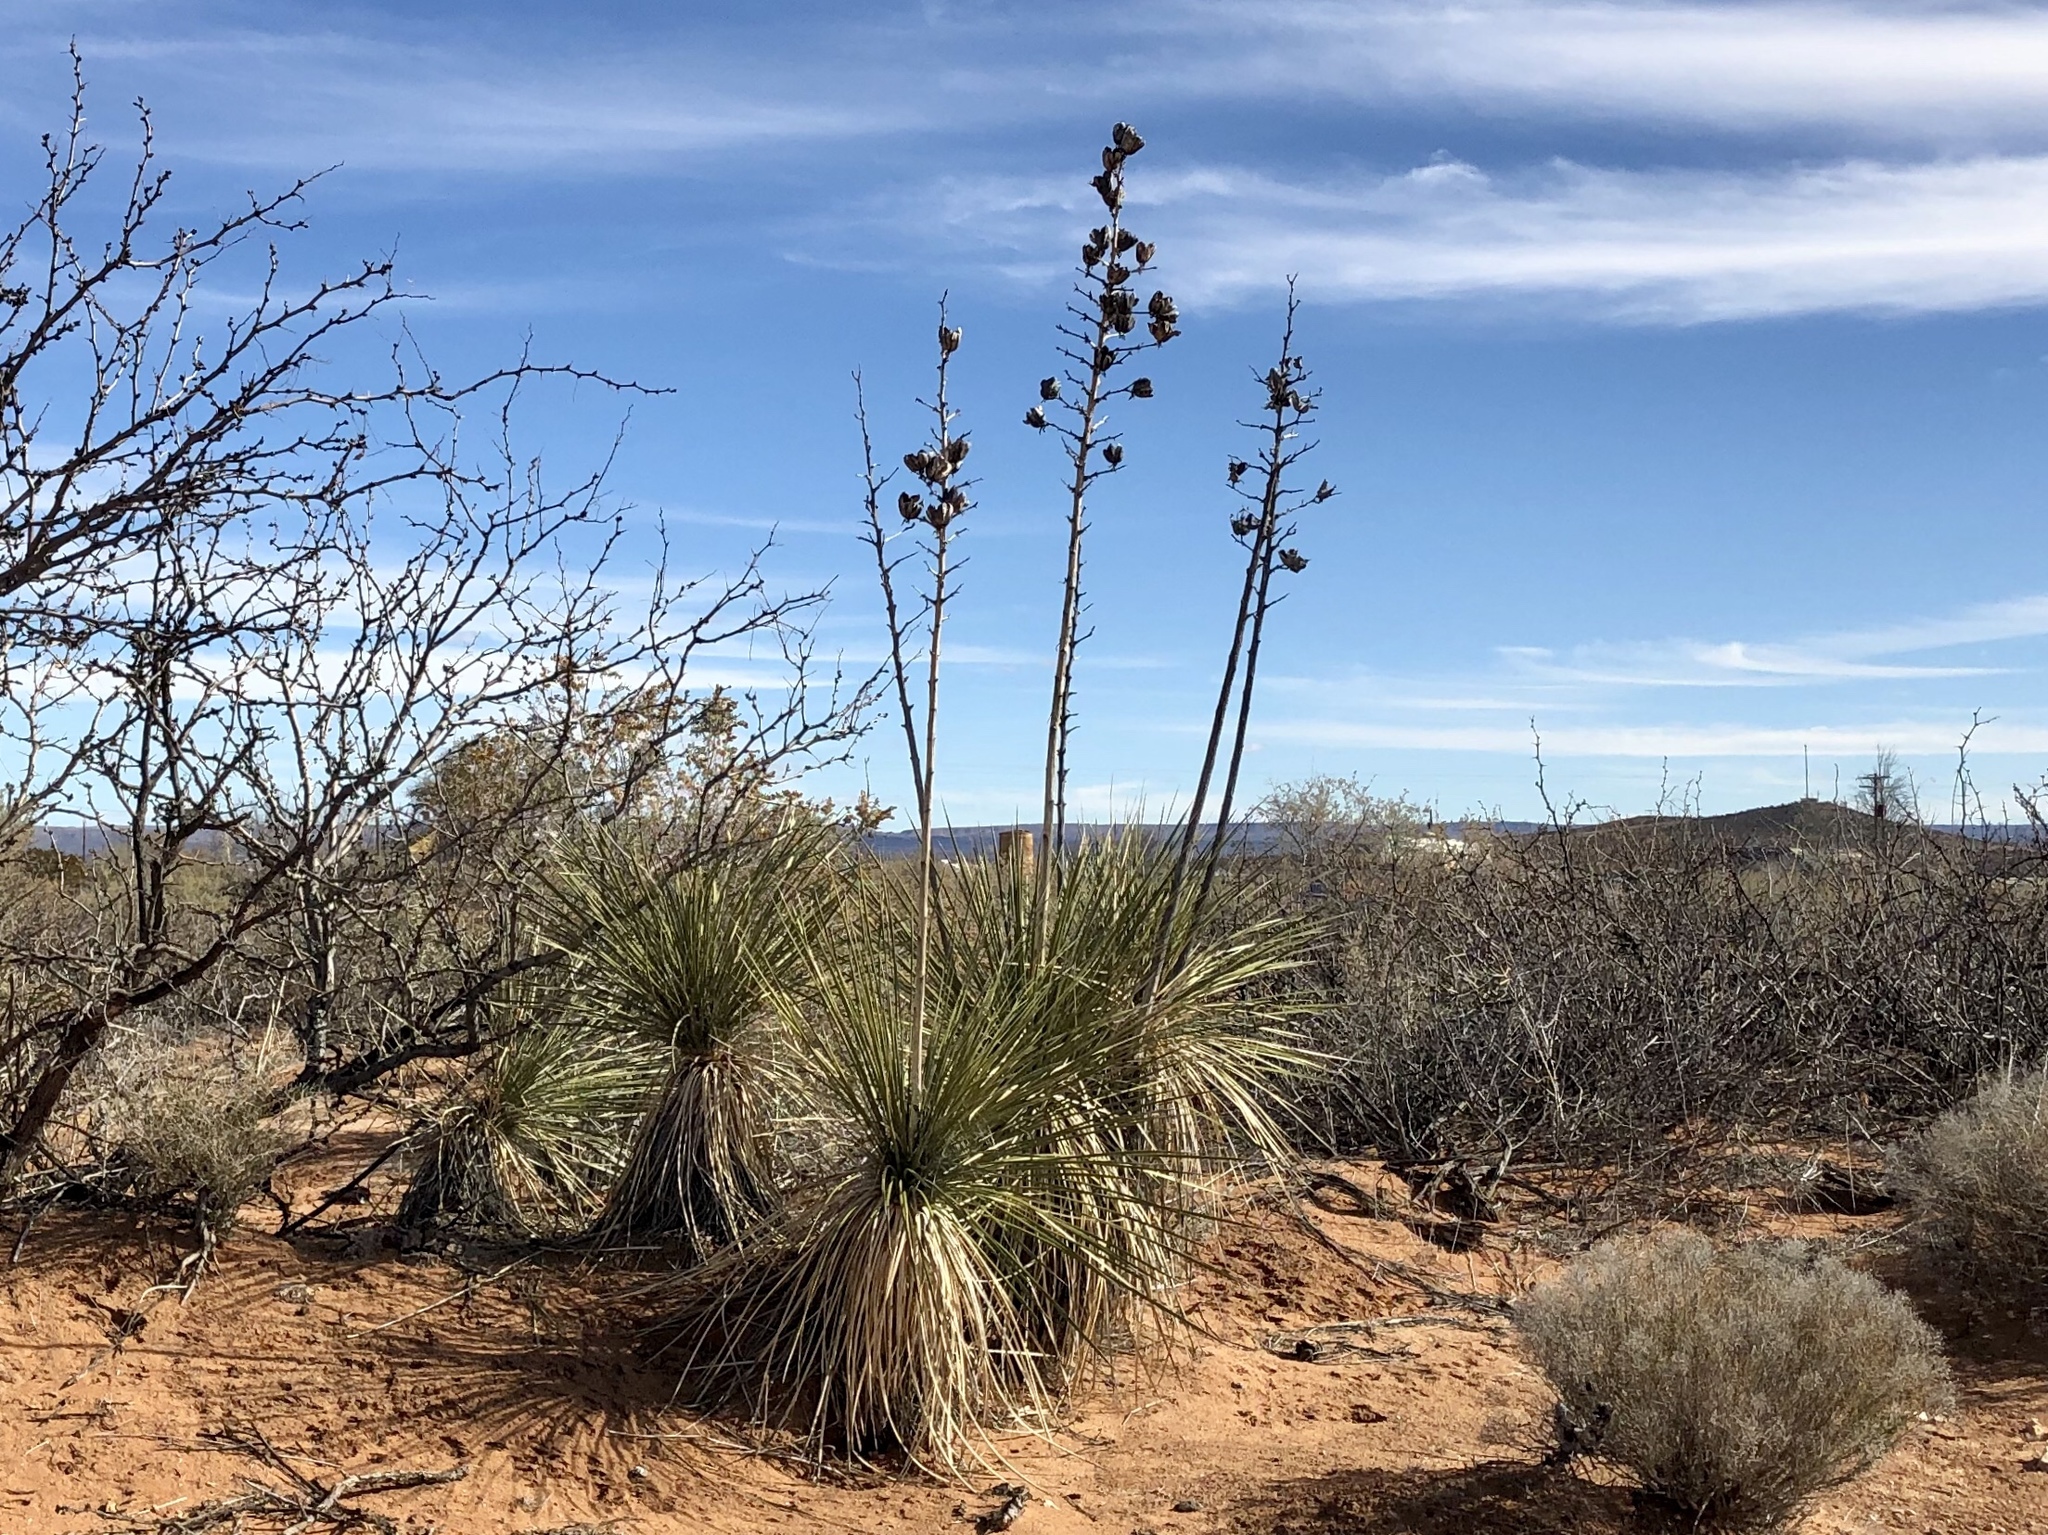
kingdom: Plantae
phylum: Tracheophyta
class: Liliopsida
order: Asparagales
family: Asparagaceae
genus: Yucca
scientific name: Yucca elata
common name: Palmella
